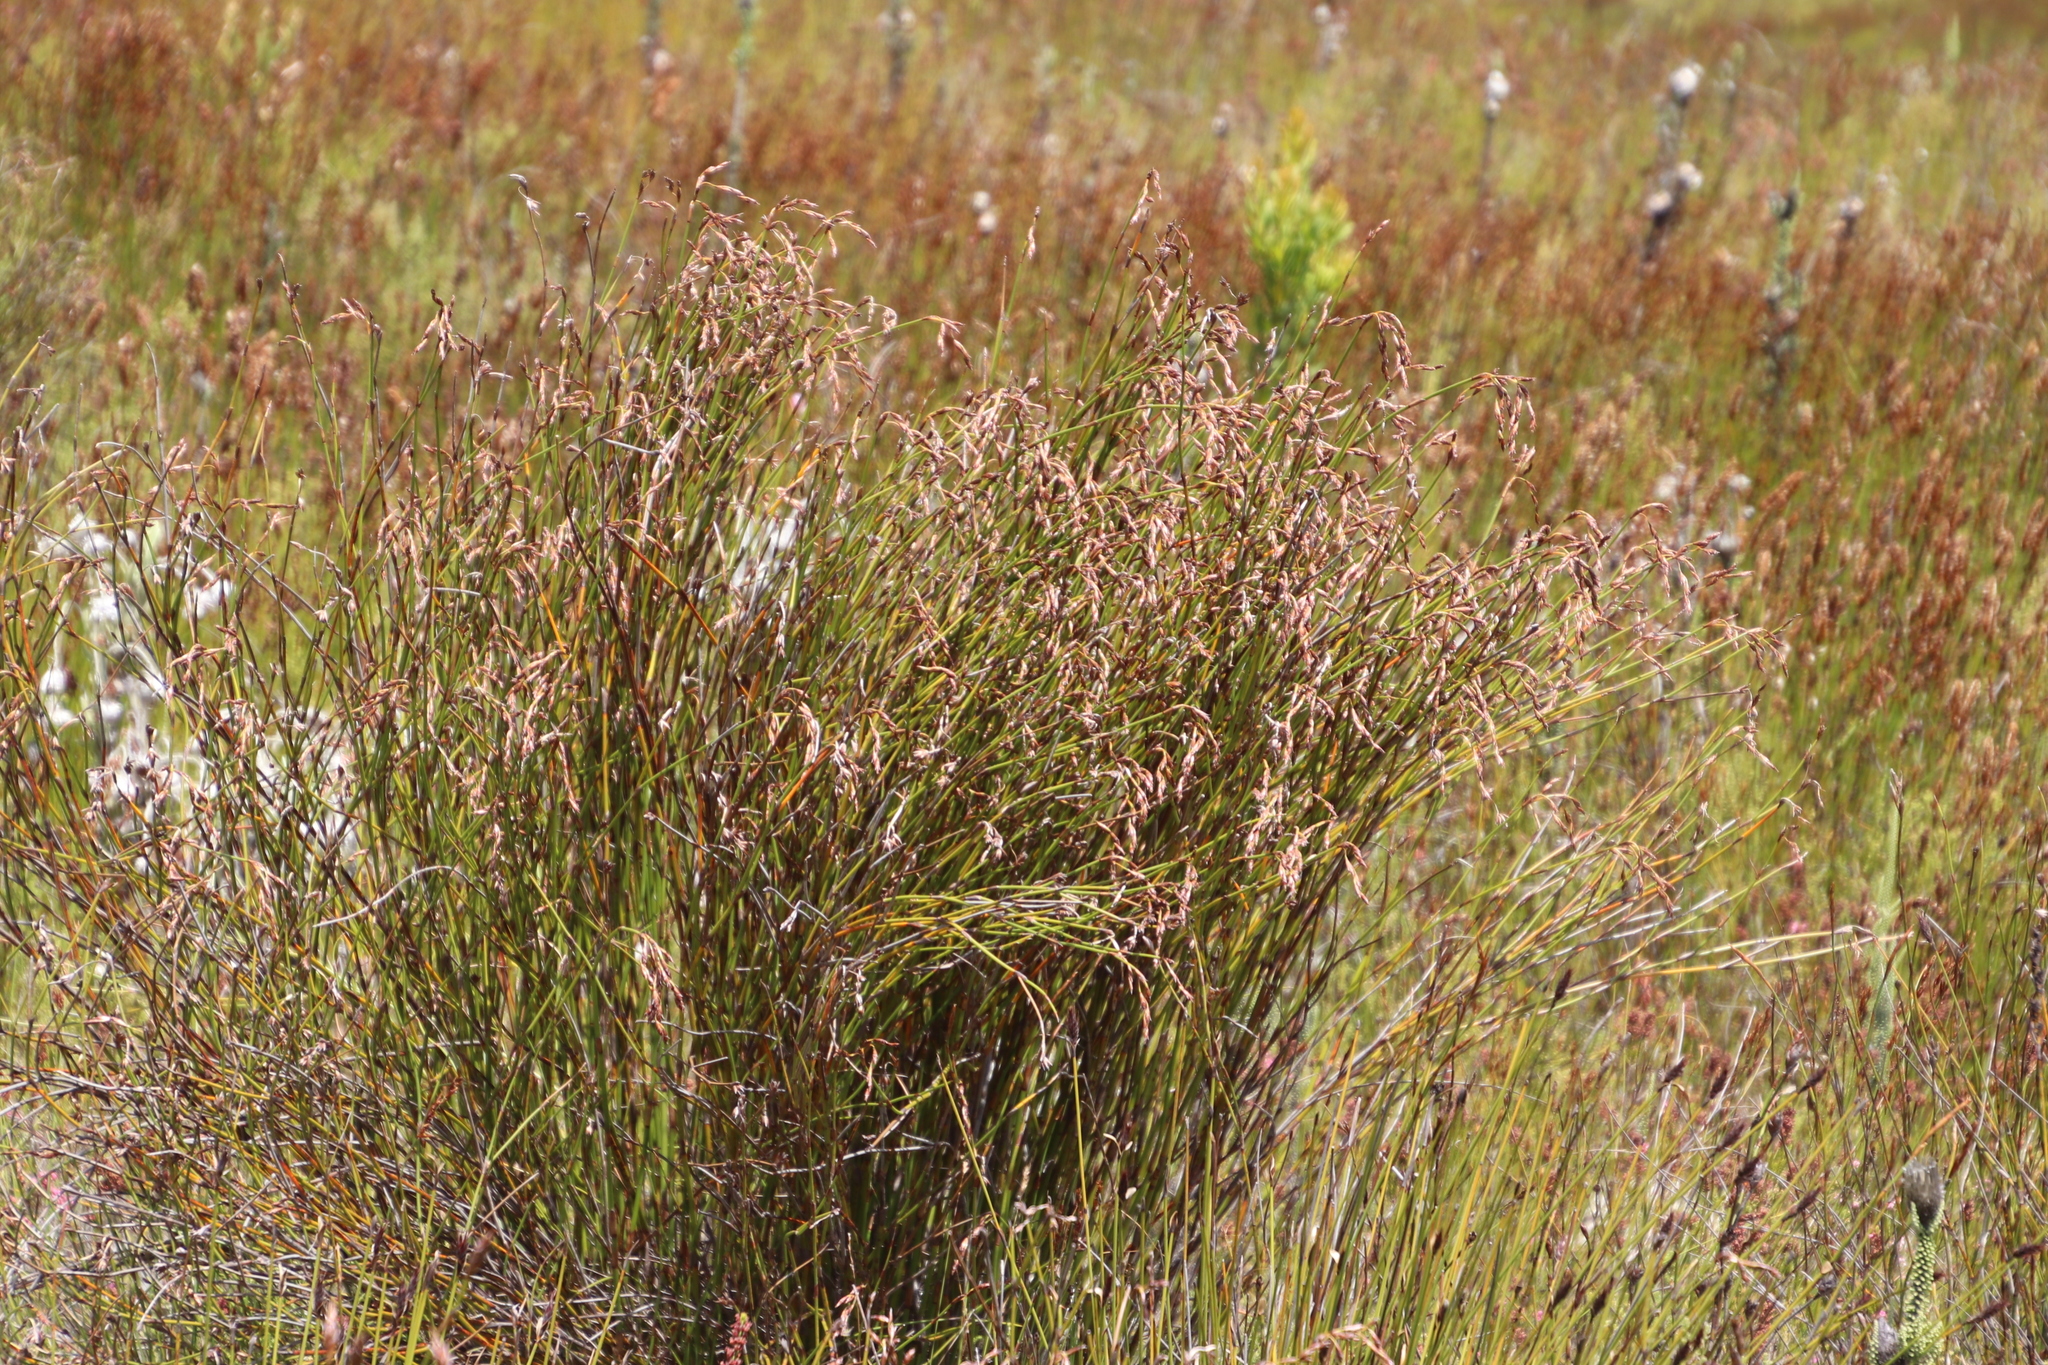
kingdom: Plantae
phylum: Tracheophyta
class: Liliopsida
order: Poales
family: Restionaceae
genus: Restio
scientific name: Restio egregius
